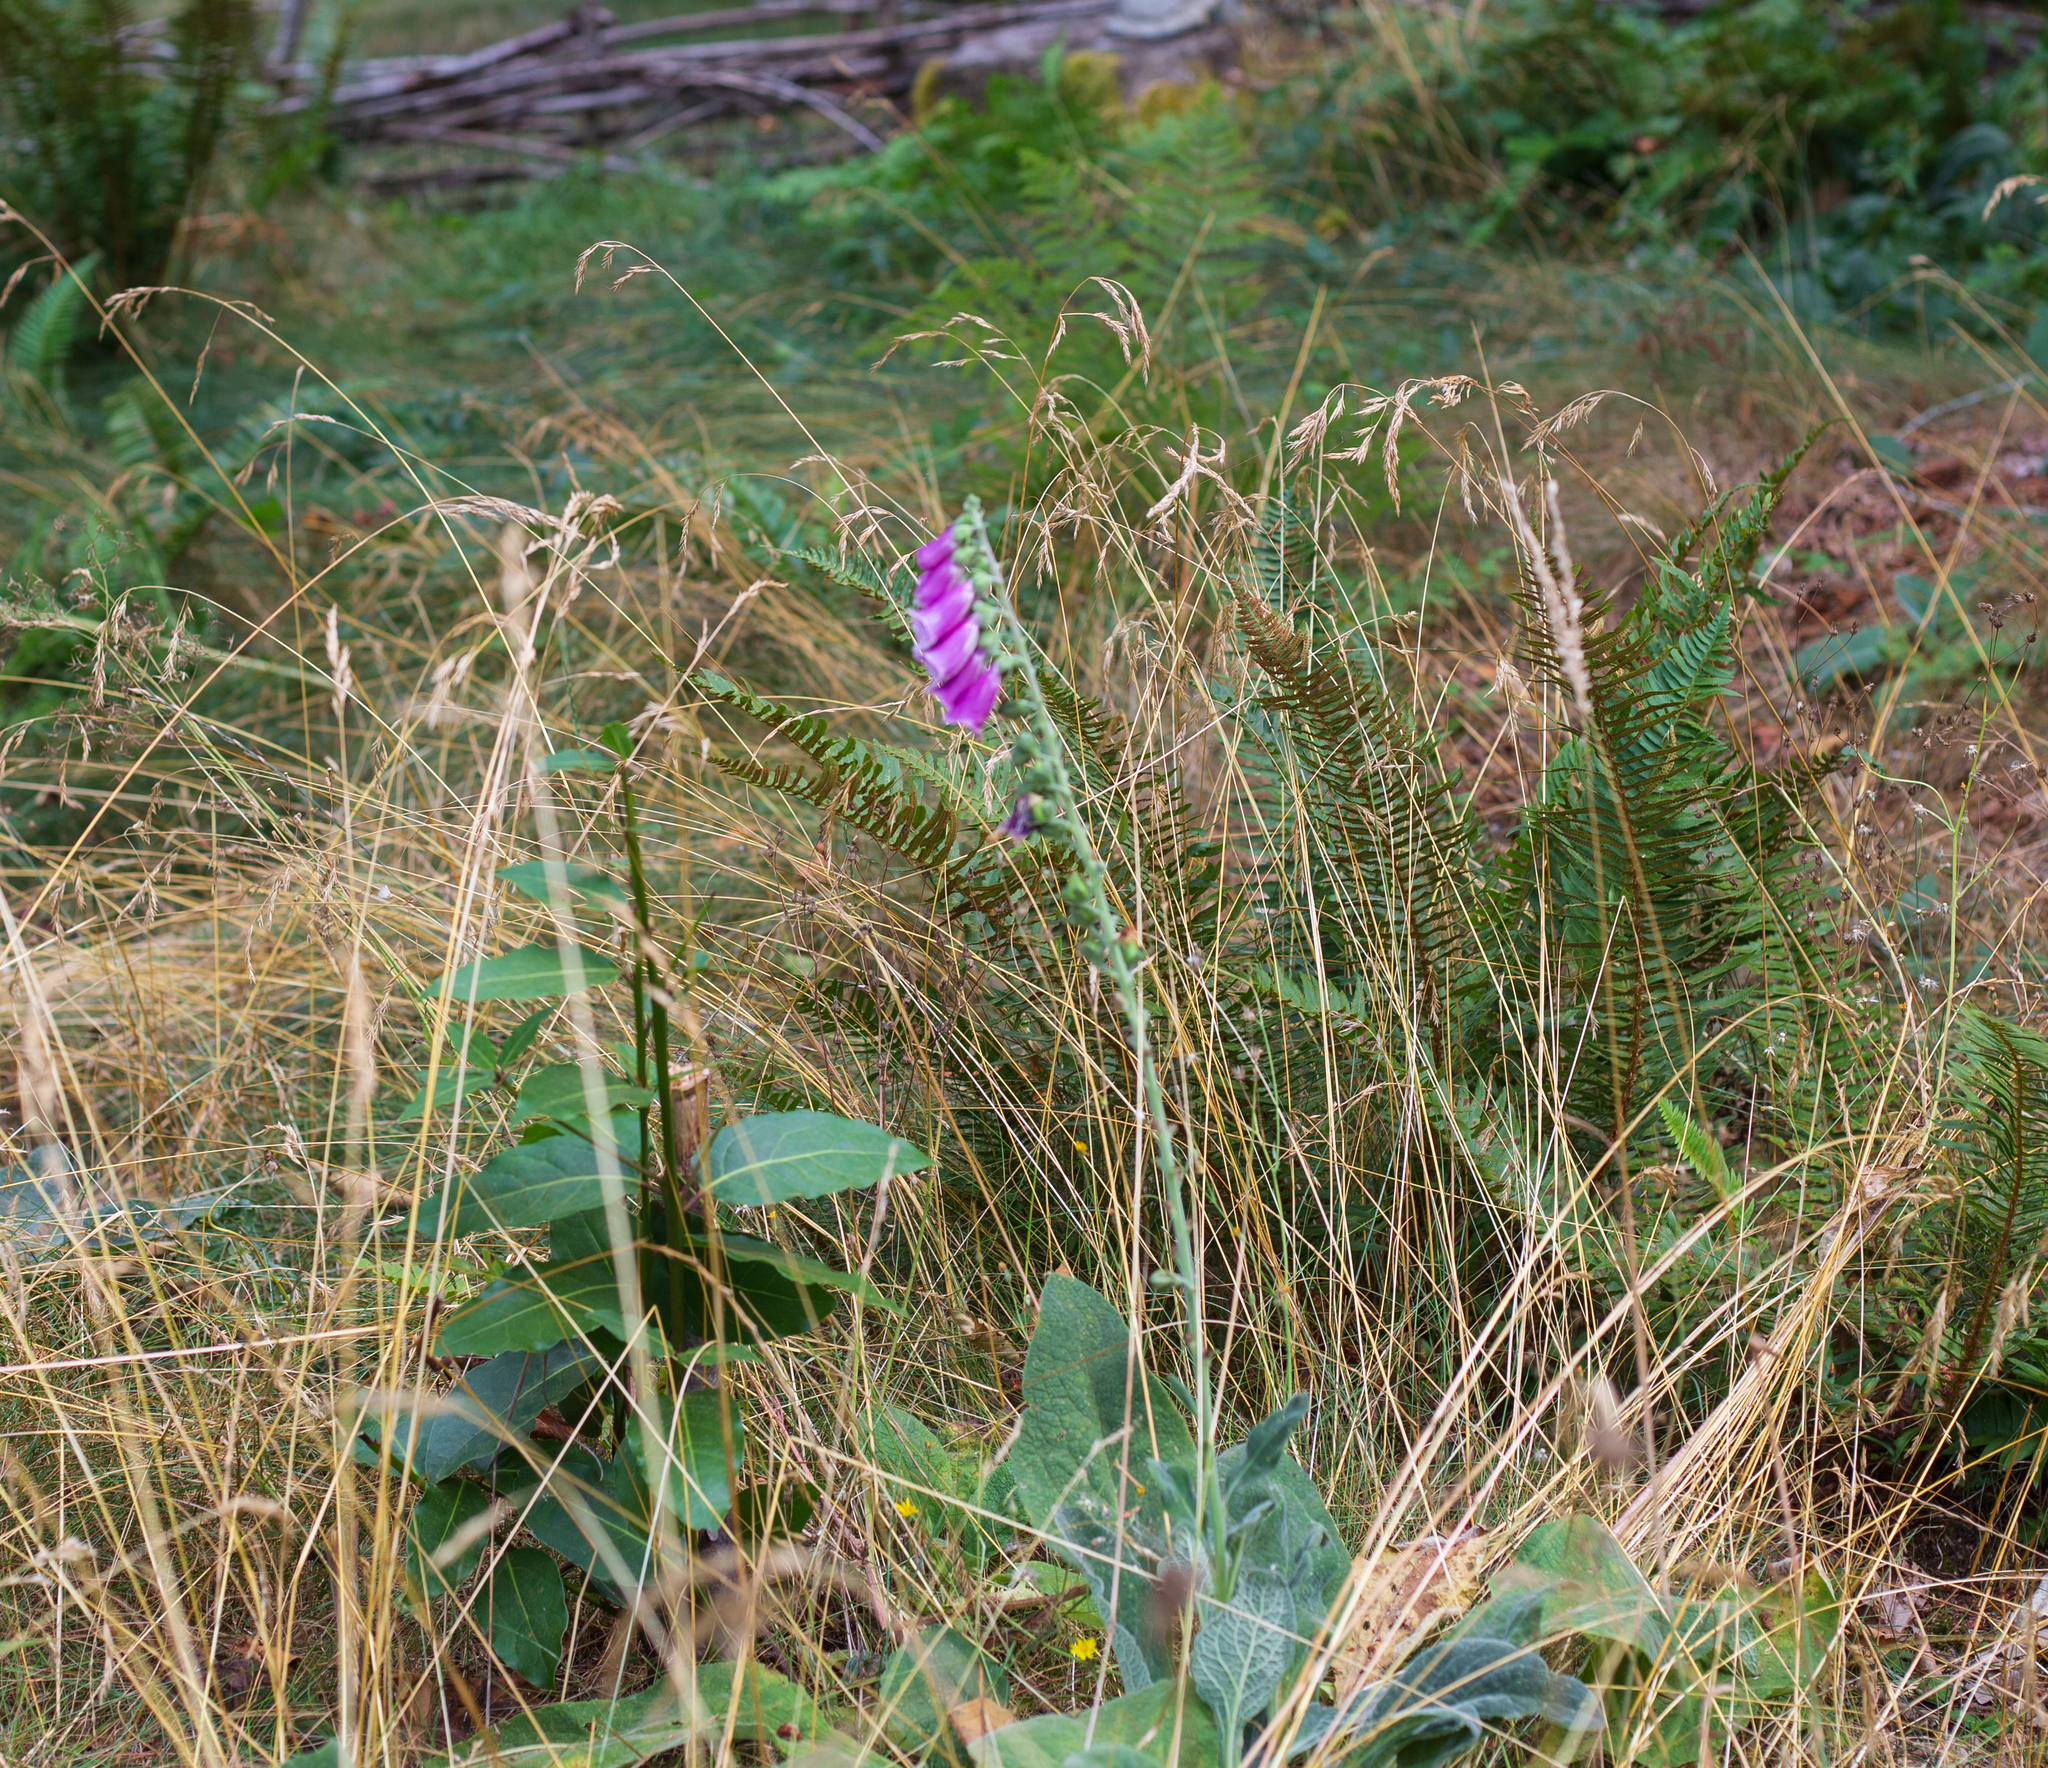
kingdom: Plantae
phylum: Tracheophyta
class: Magnoliopsida
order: Lamiales
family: Plantaginaceae
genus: Digitalis
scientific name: Digitalis purpurea
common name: Foxglove
